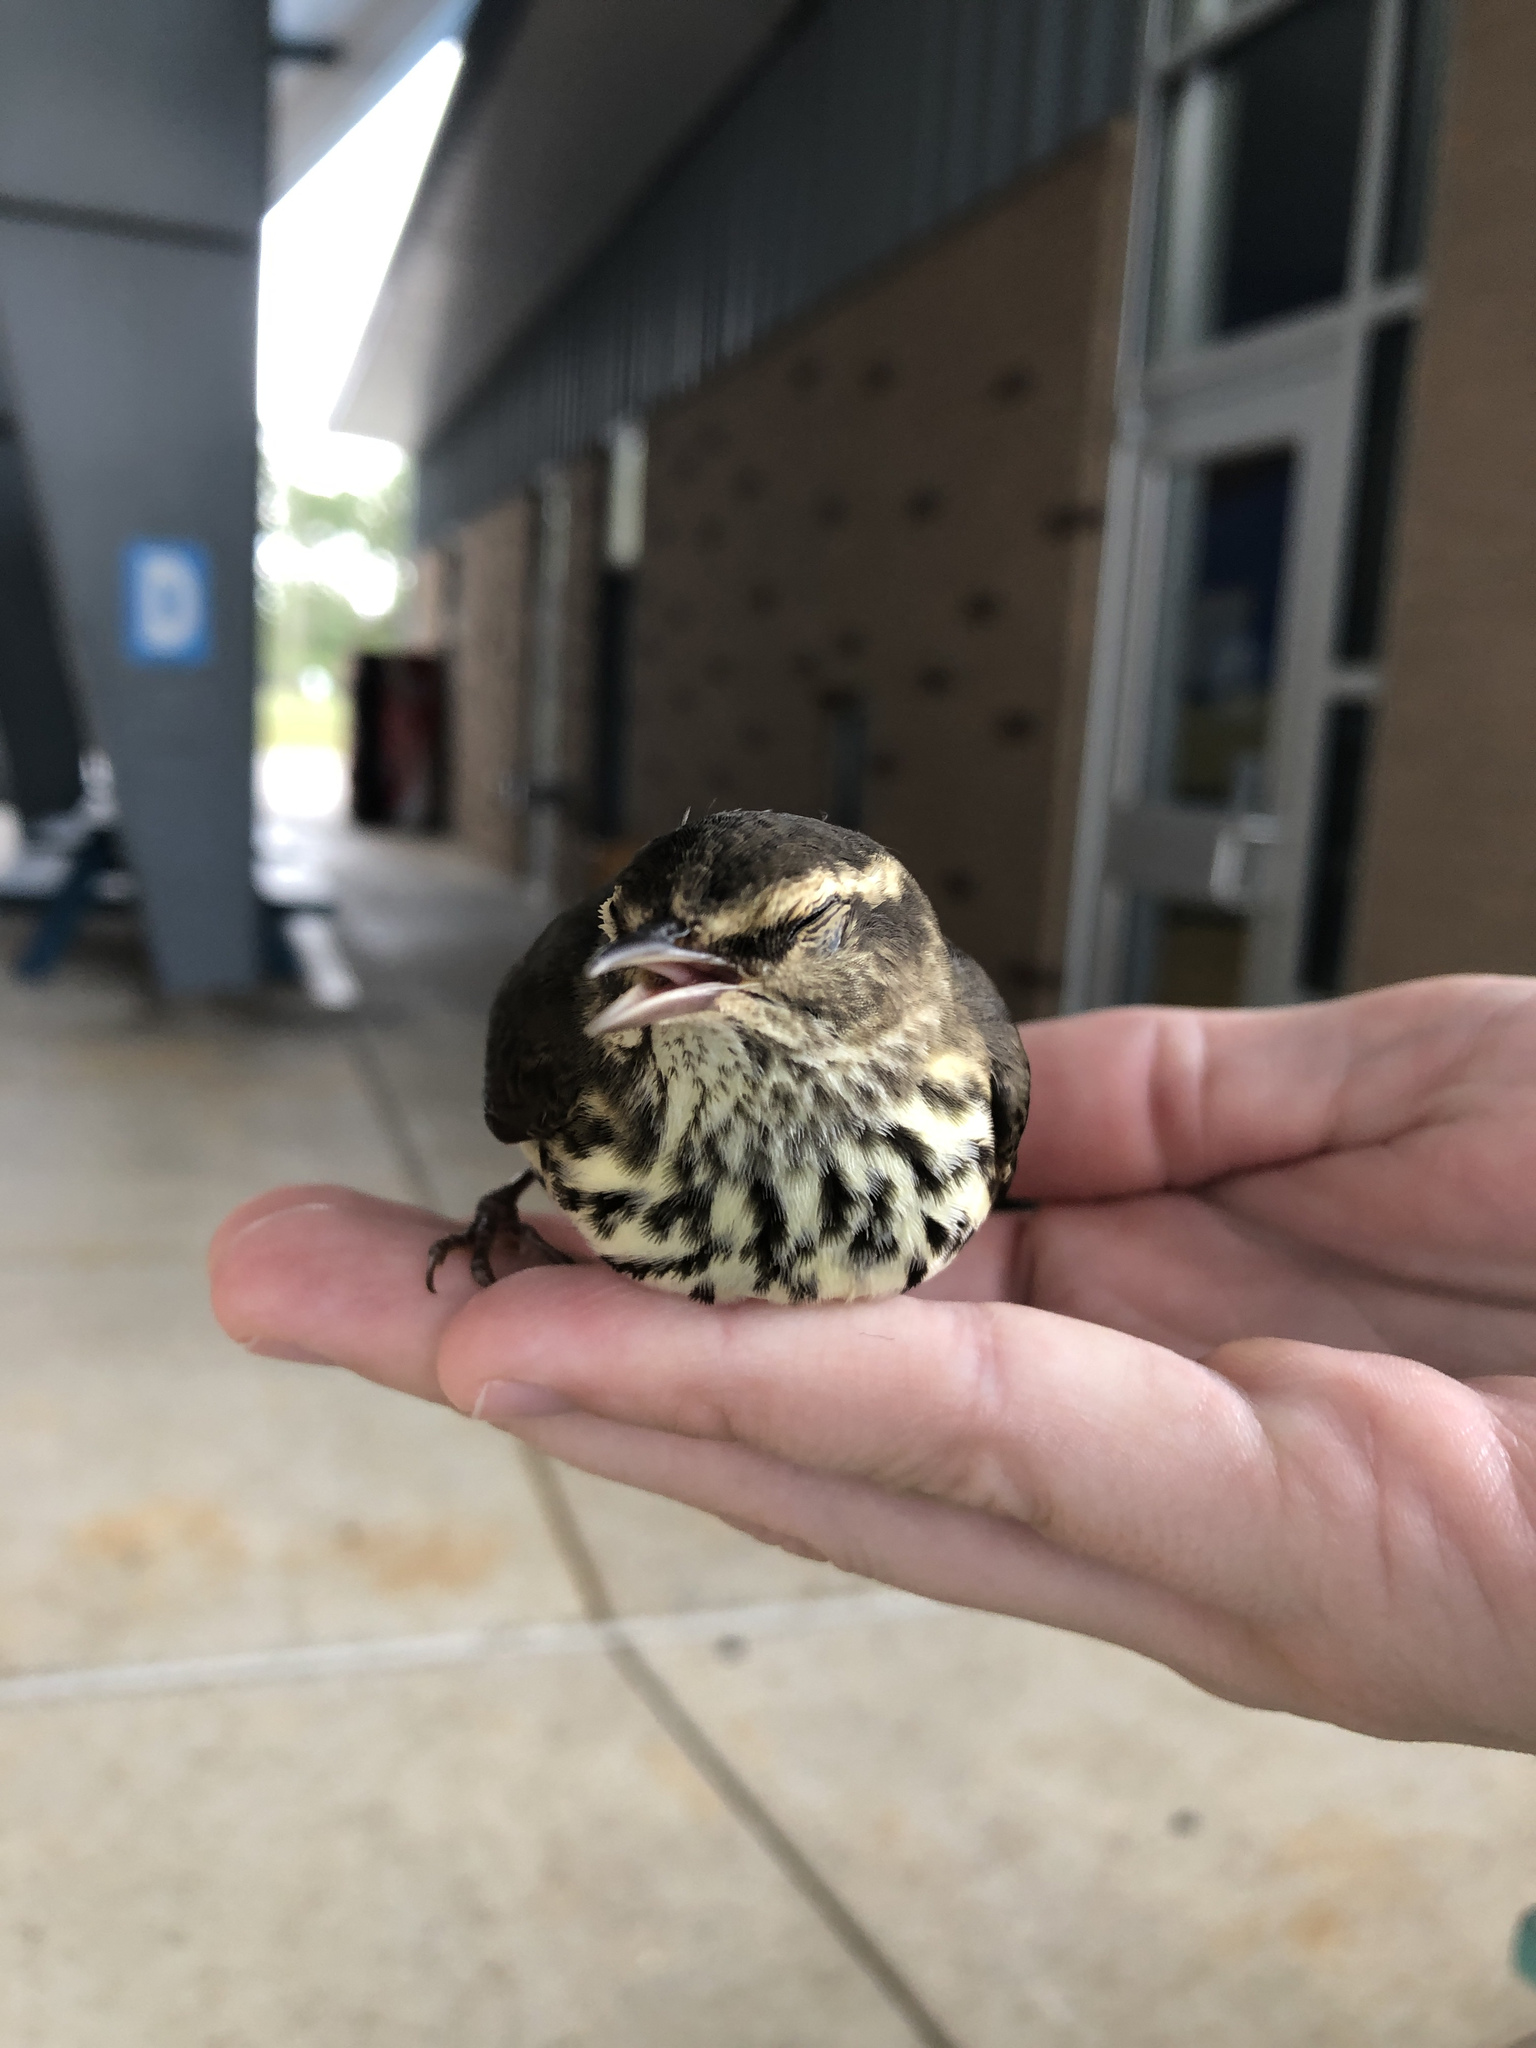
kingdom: Animalia
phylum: Chordata
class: Aves
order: Passeriformes
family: Parulidae
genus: Parkesia
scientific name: Parkesia noveboracensis
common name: Northern waterthrush
